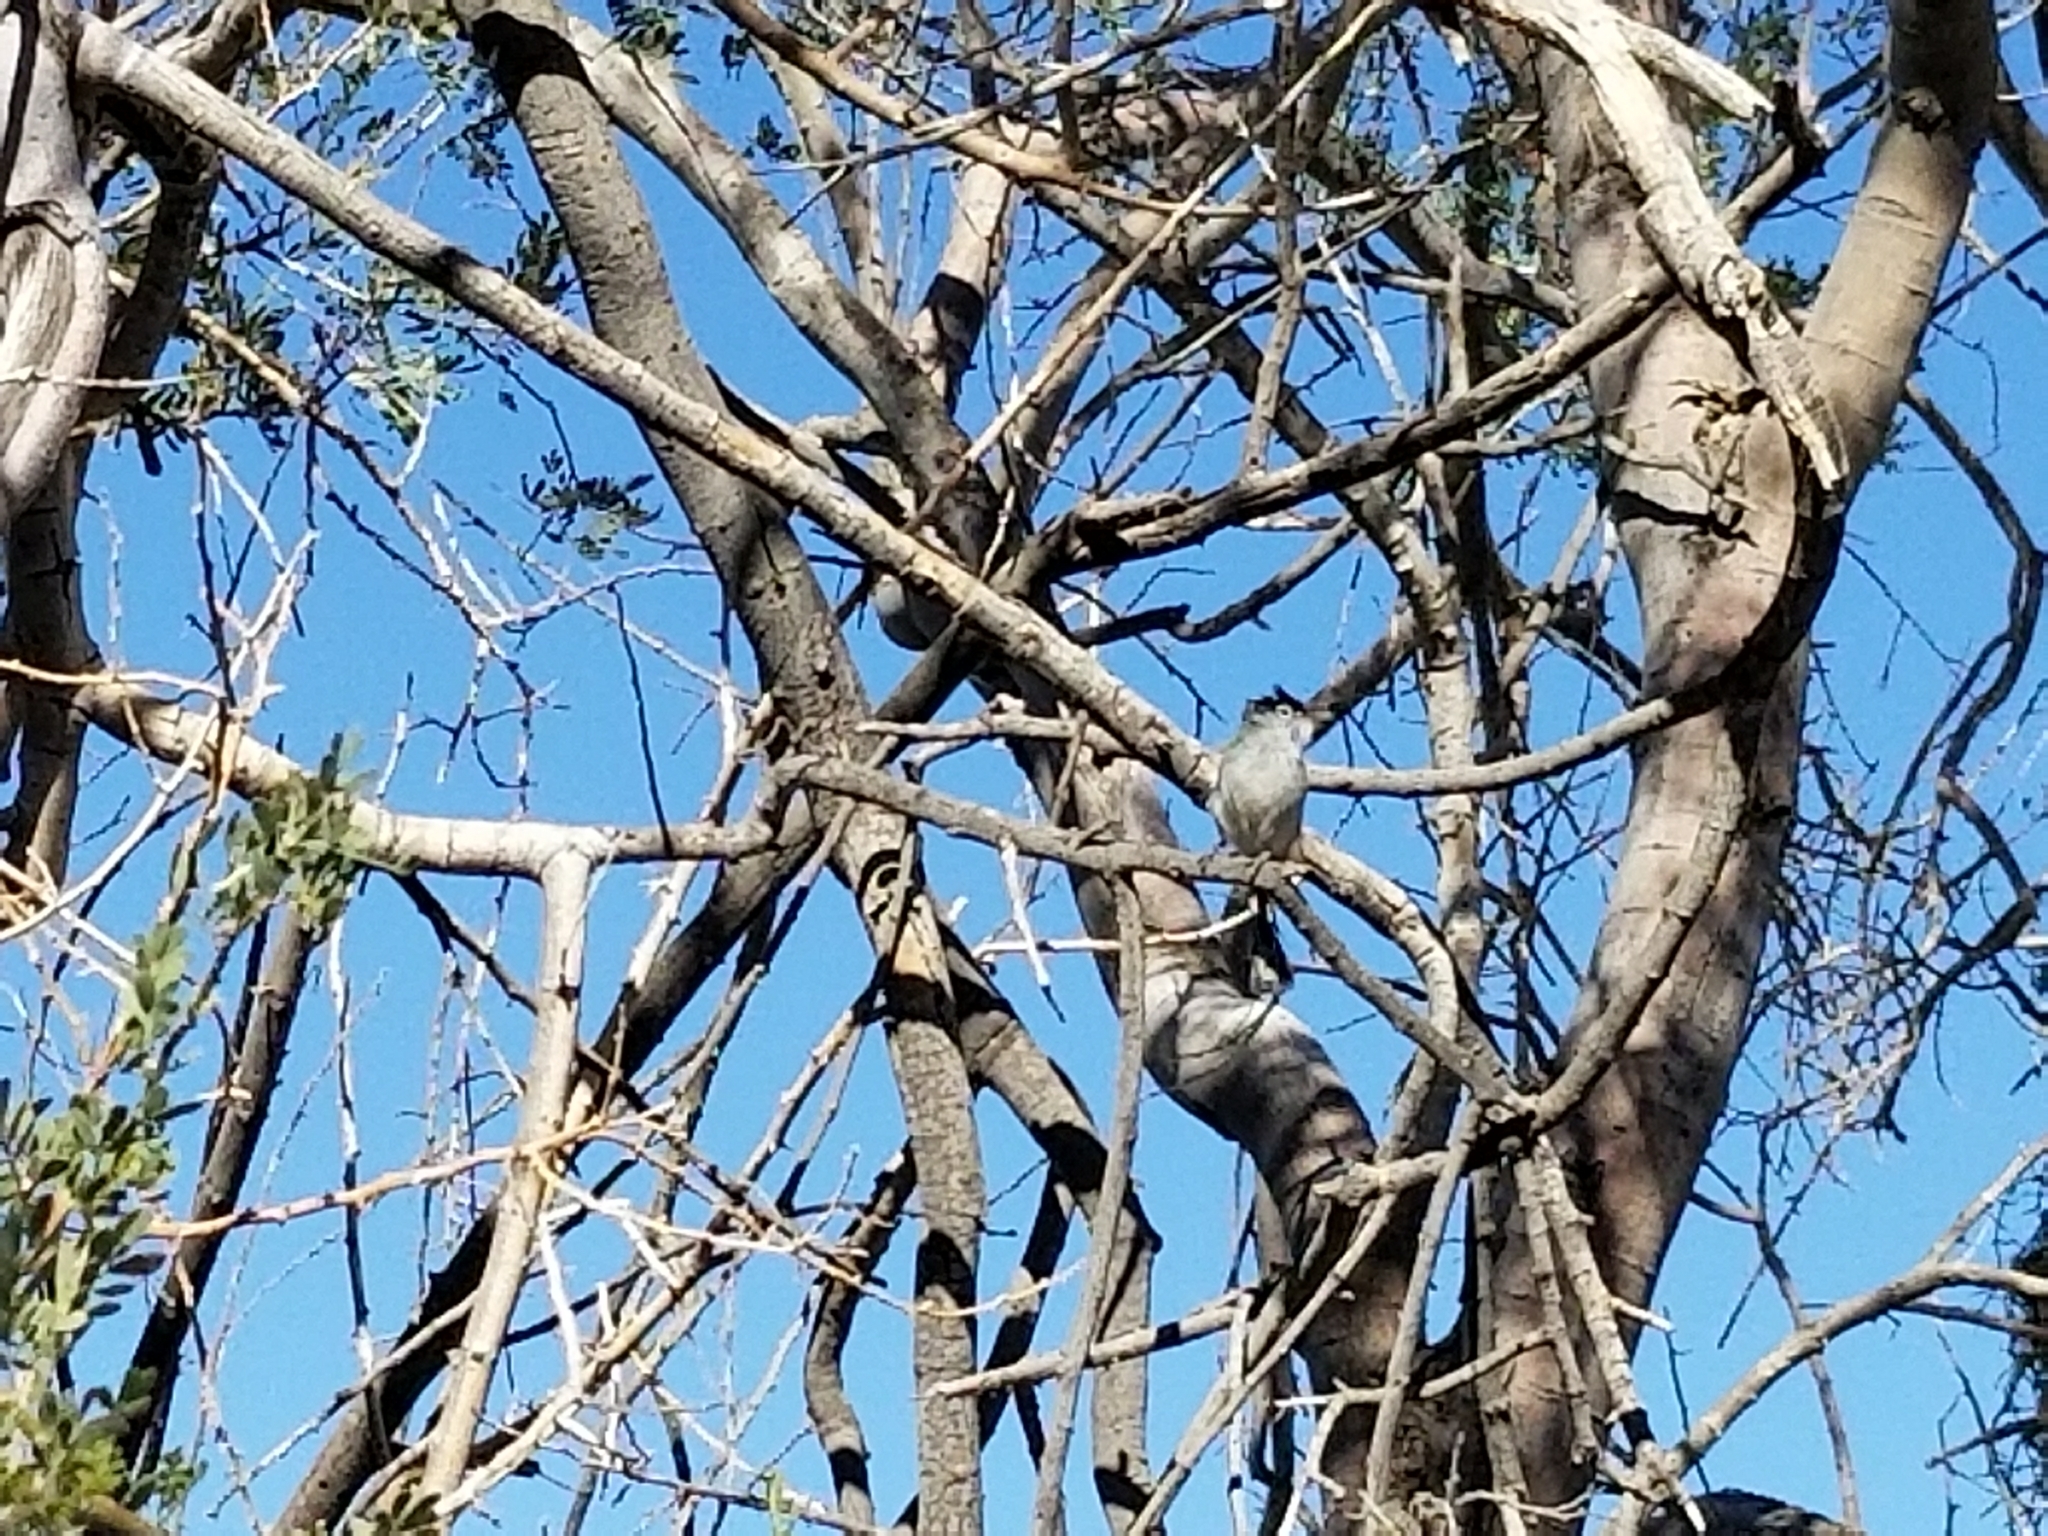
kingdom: Animalia
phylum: Chordata
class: Aves
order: Passeriformes
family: Polioptilidae
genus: Polioptila
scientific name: Polioptila melanura
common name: Black-tailed gnatcatcher
